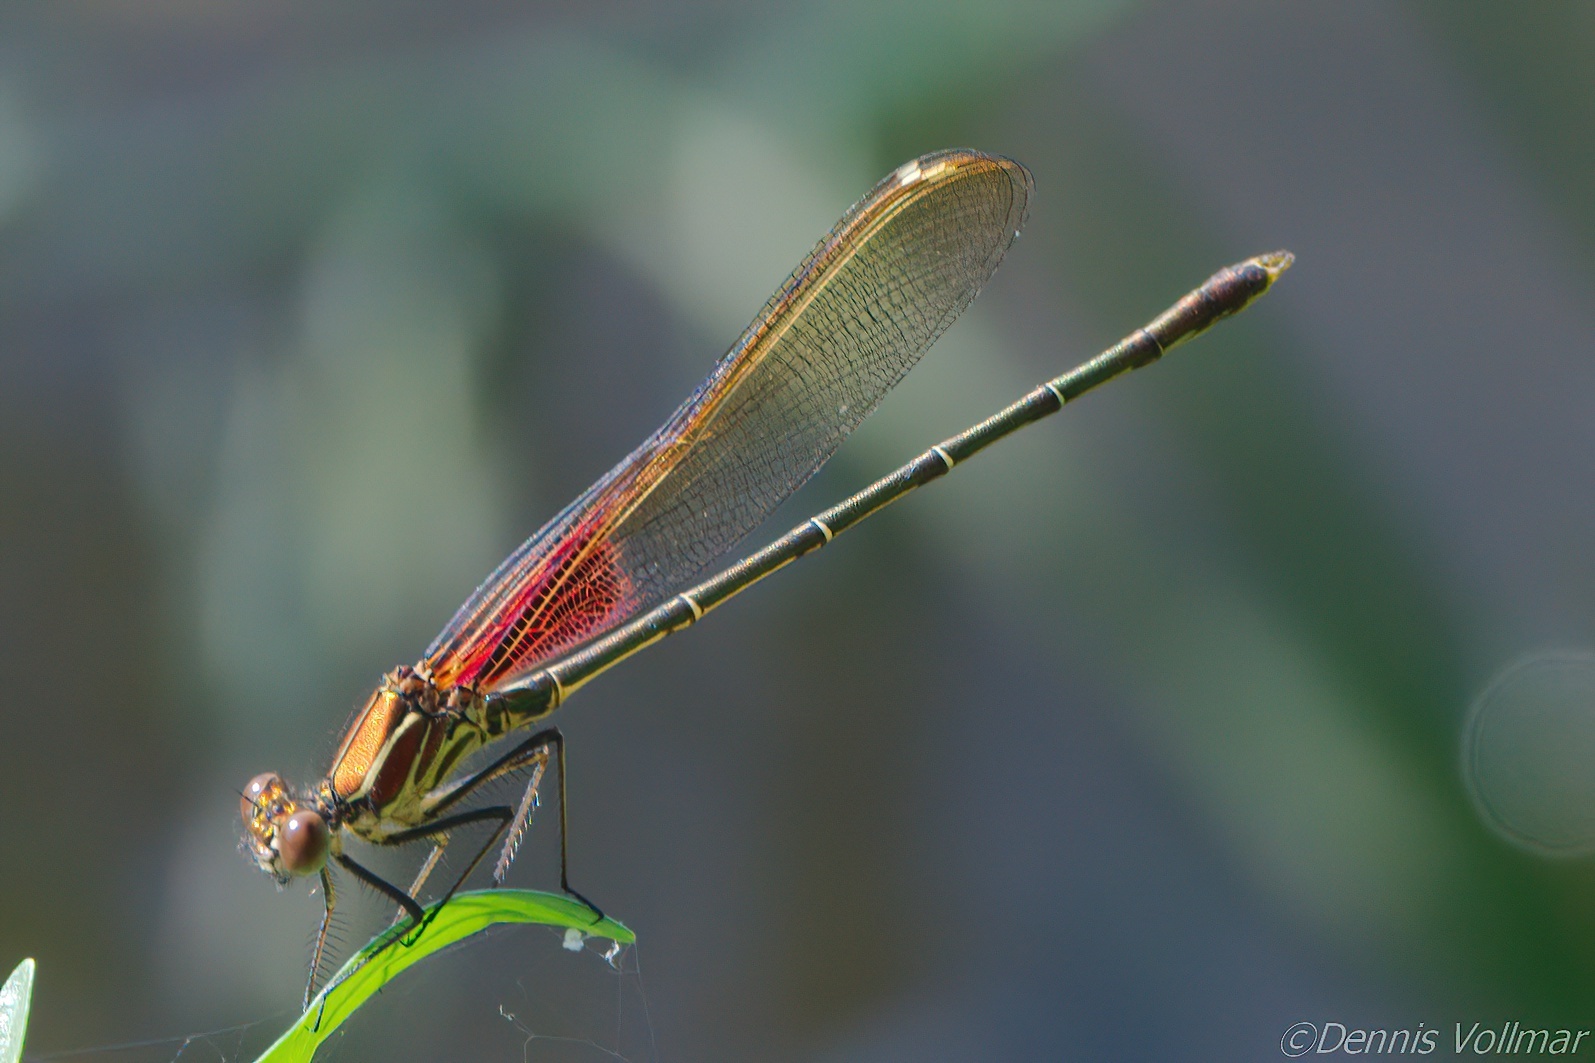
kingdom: Animalia
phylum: Arthropoda
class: Insecta
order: Odonata
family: Calopterygidae
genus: Hetaerina
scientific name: Hetaerina americana
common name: American rubyspot
